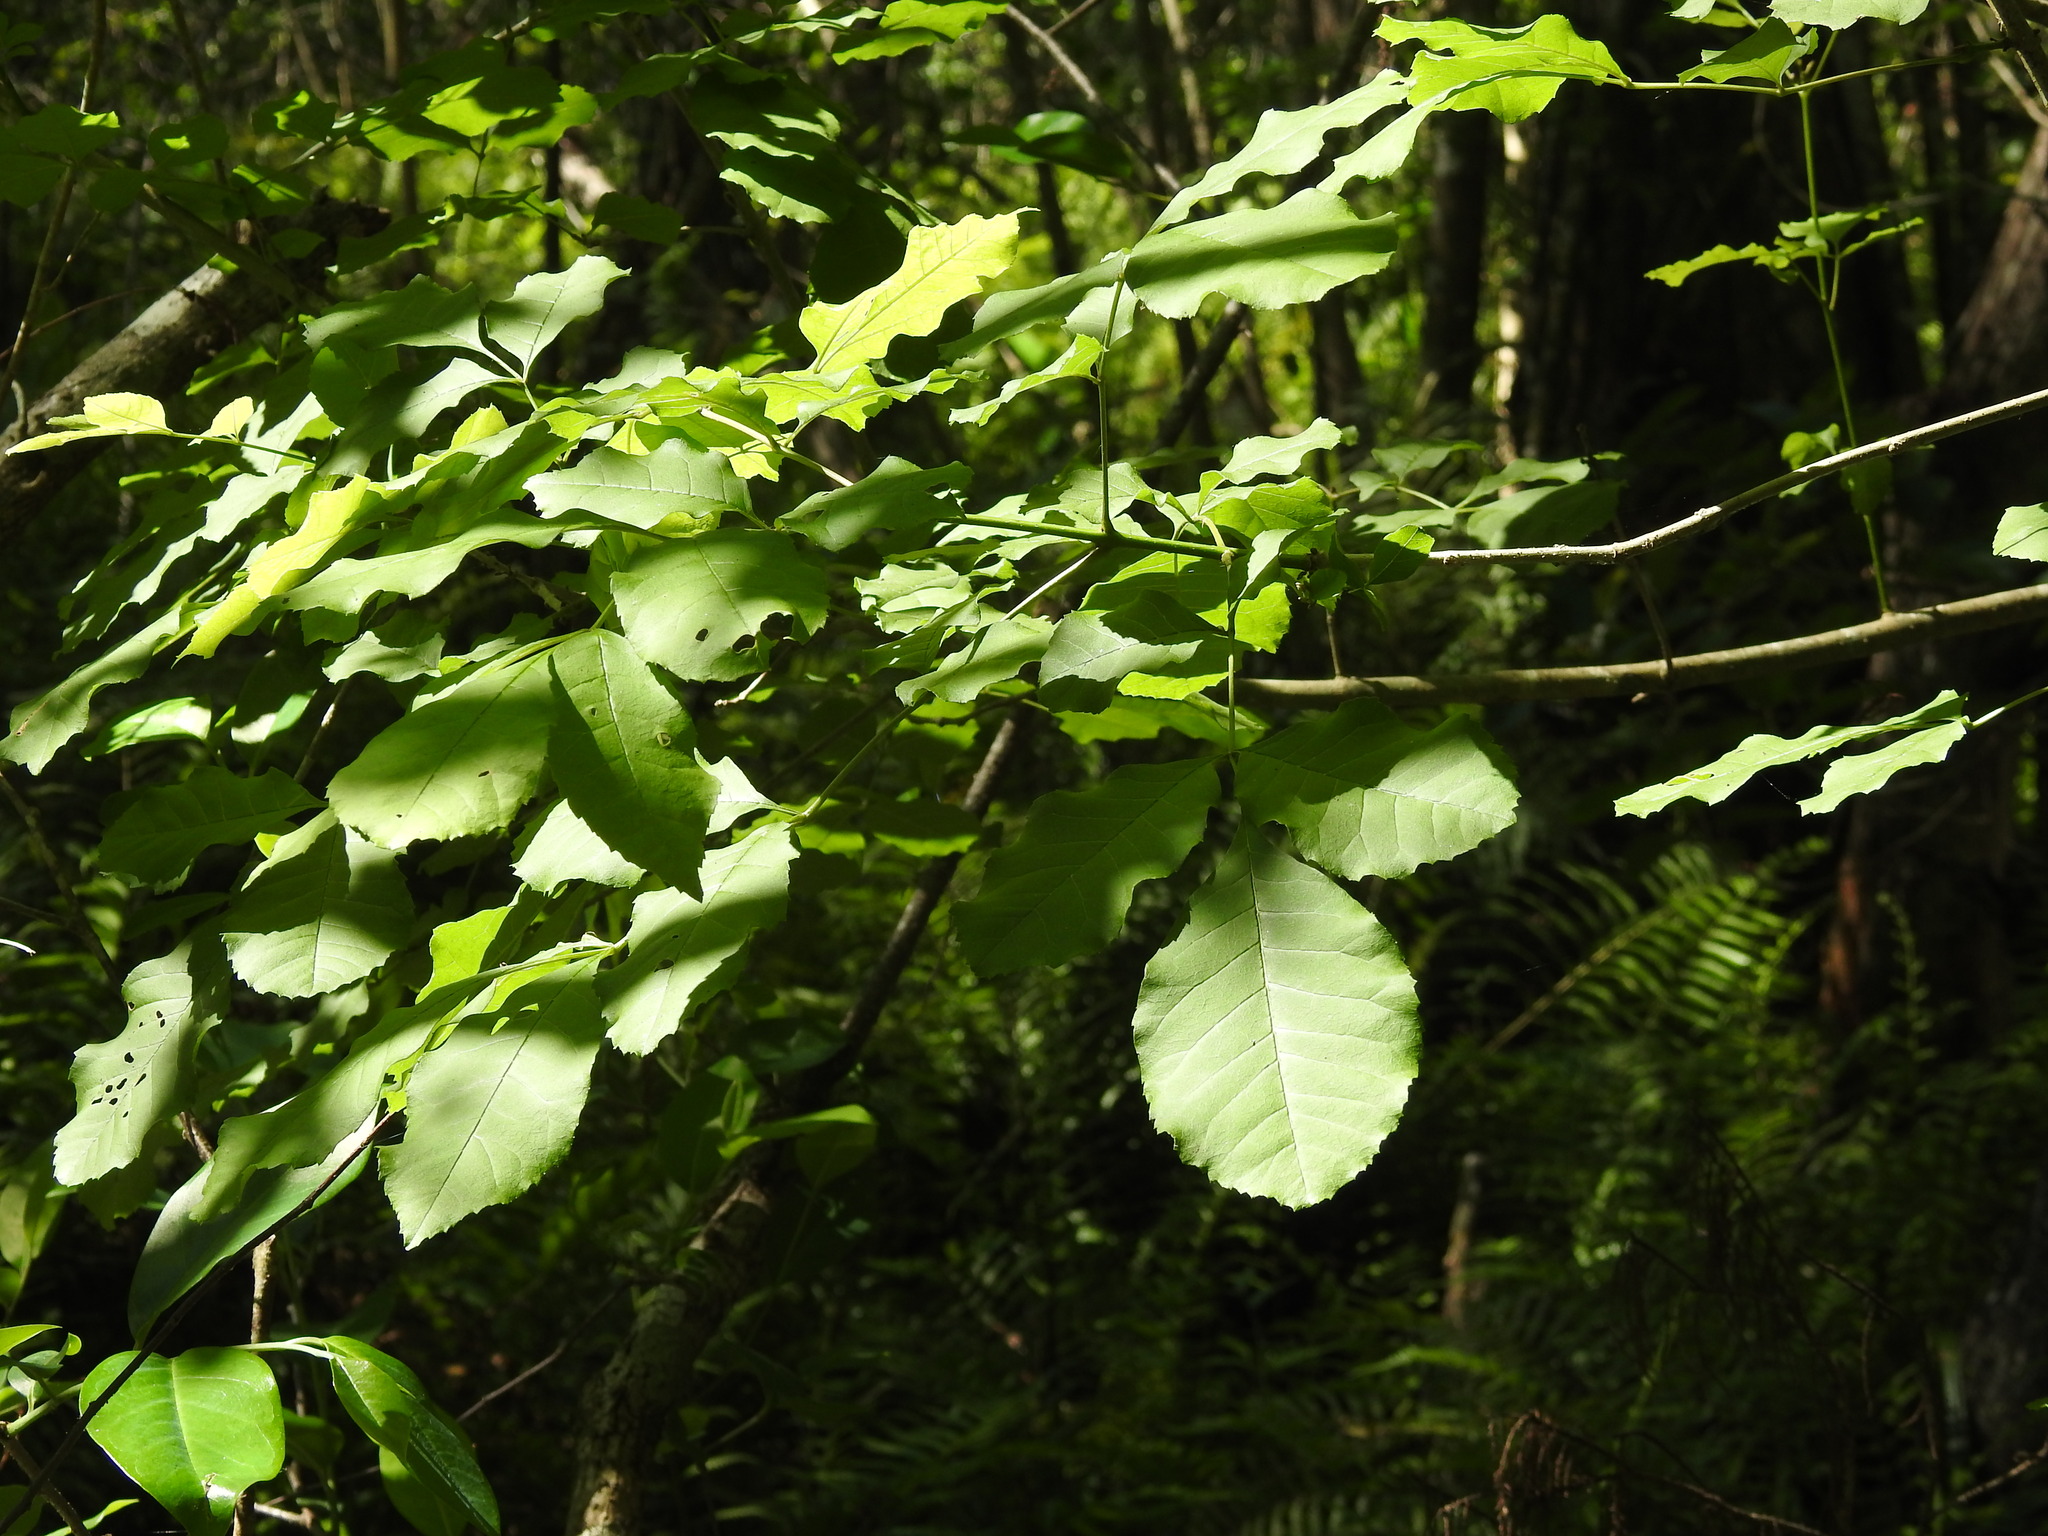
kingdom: Plantae
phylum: Tracheophyta
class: Magnoliopsida
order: Lamiales
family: Oleaceae
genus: Fraxinus
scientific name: Fraxinus caroliniana
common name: Carolina ash
